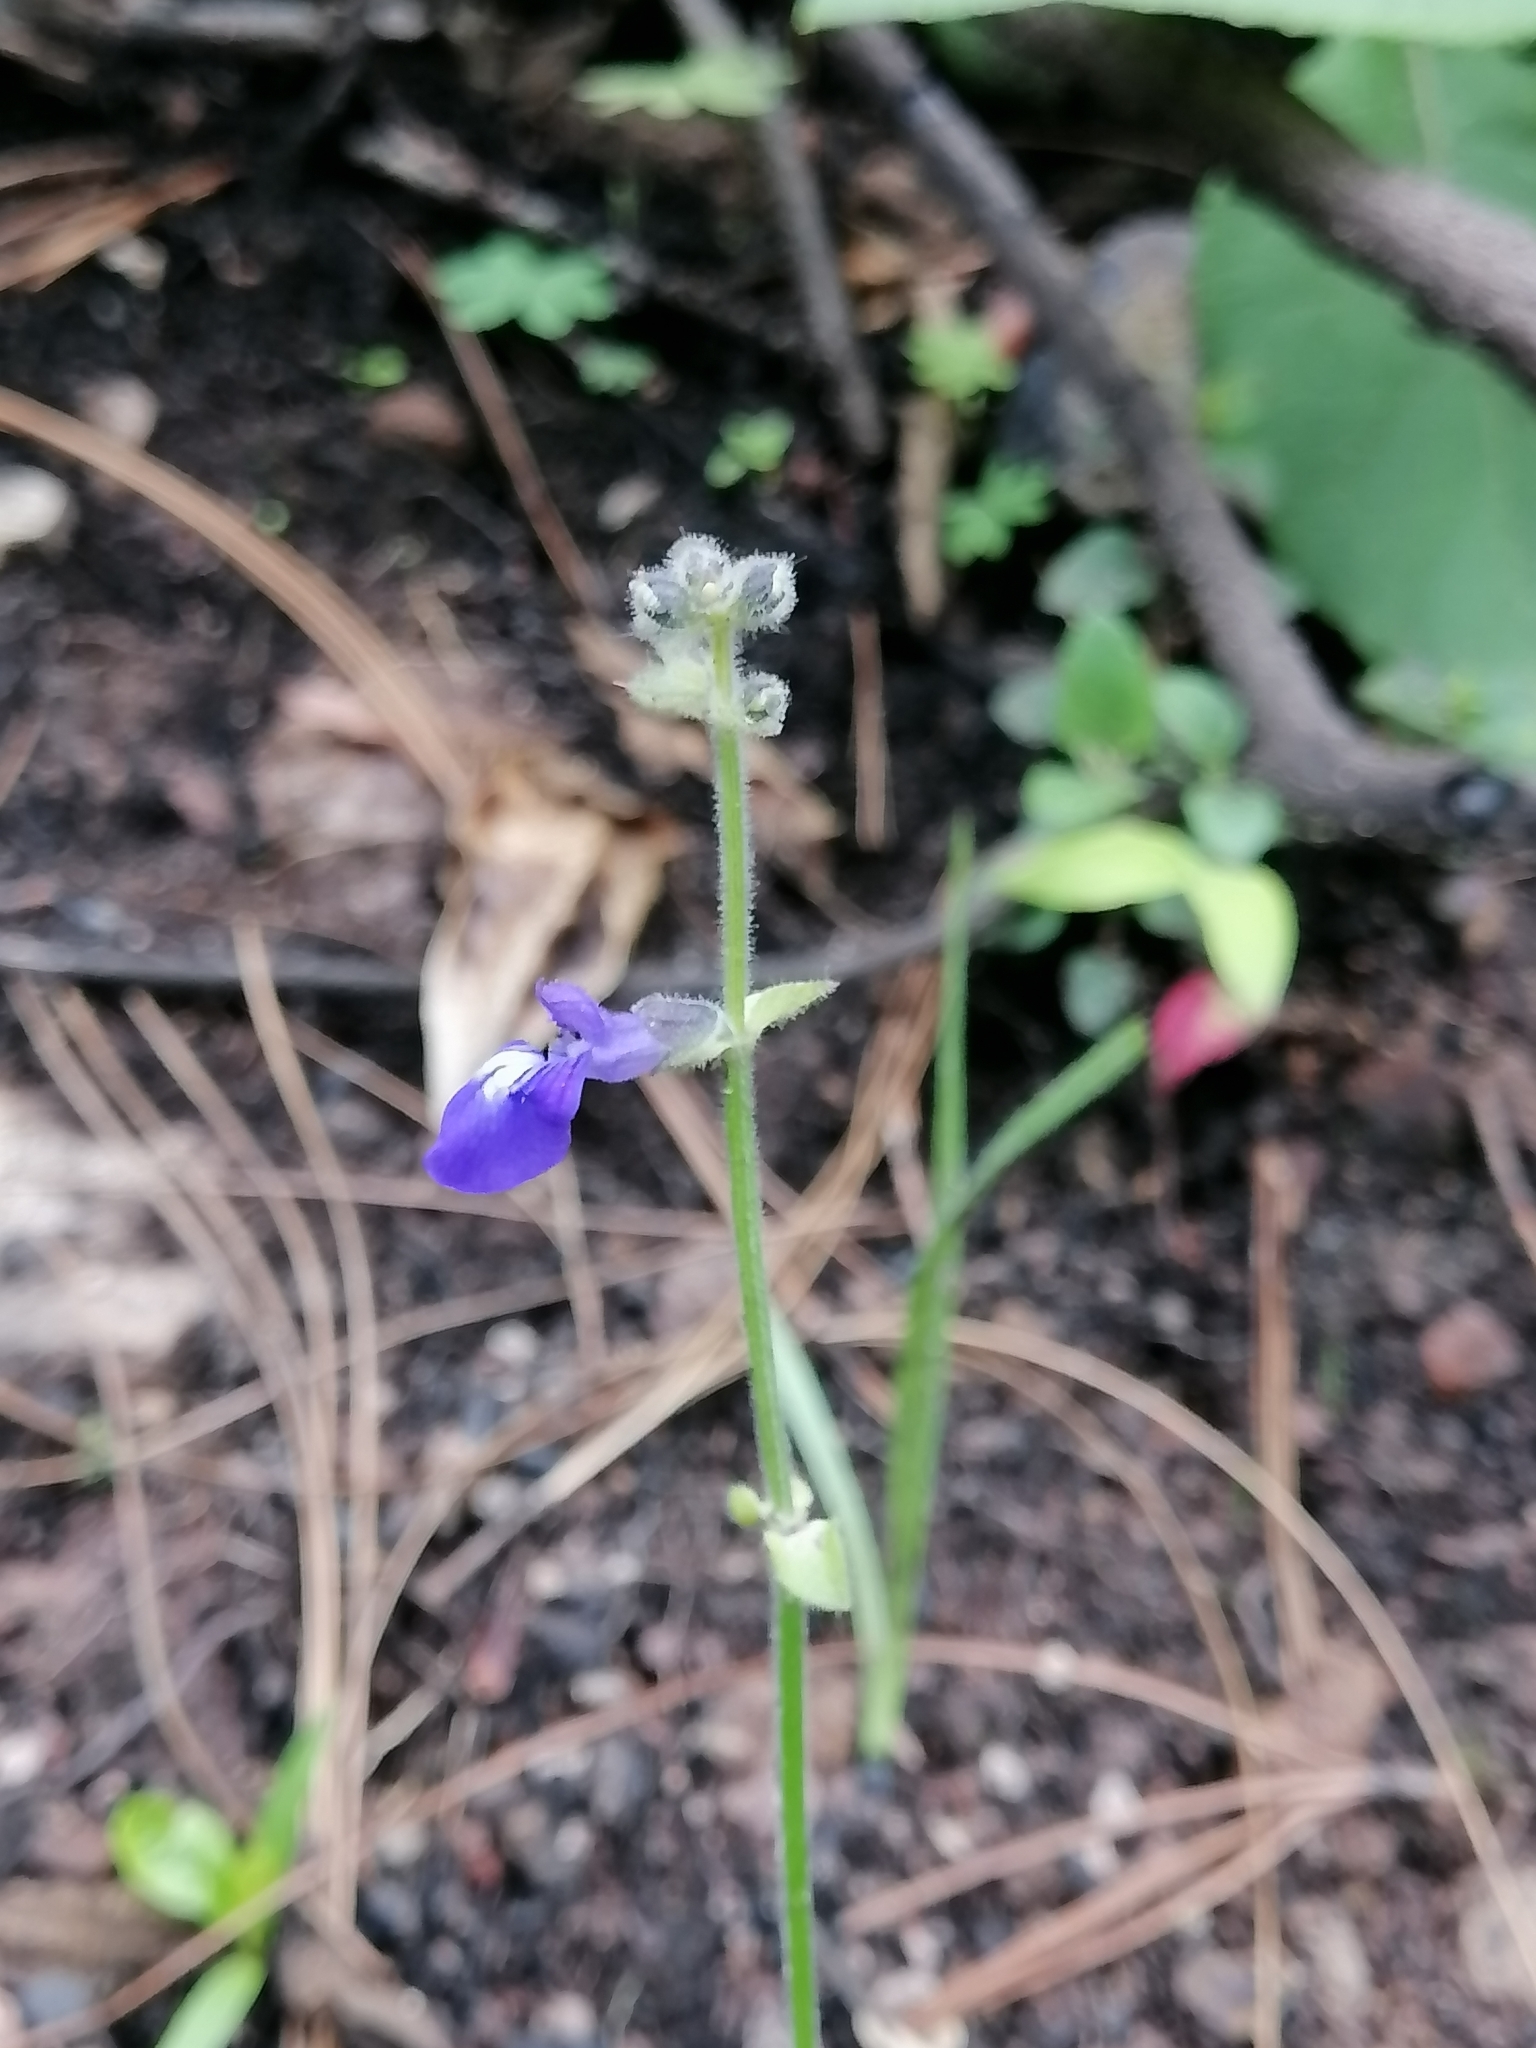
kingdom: Plantae
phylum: Tracheophyta
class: Magnoliopsida
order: Lamiales
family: Lamiaceae
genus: Salvia
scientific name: Salvia oreopola
